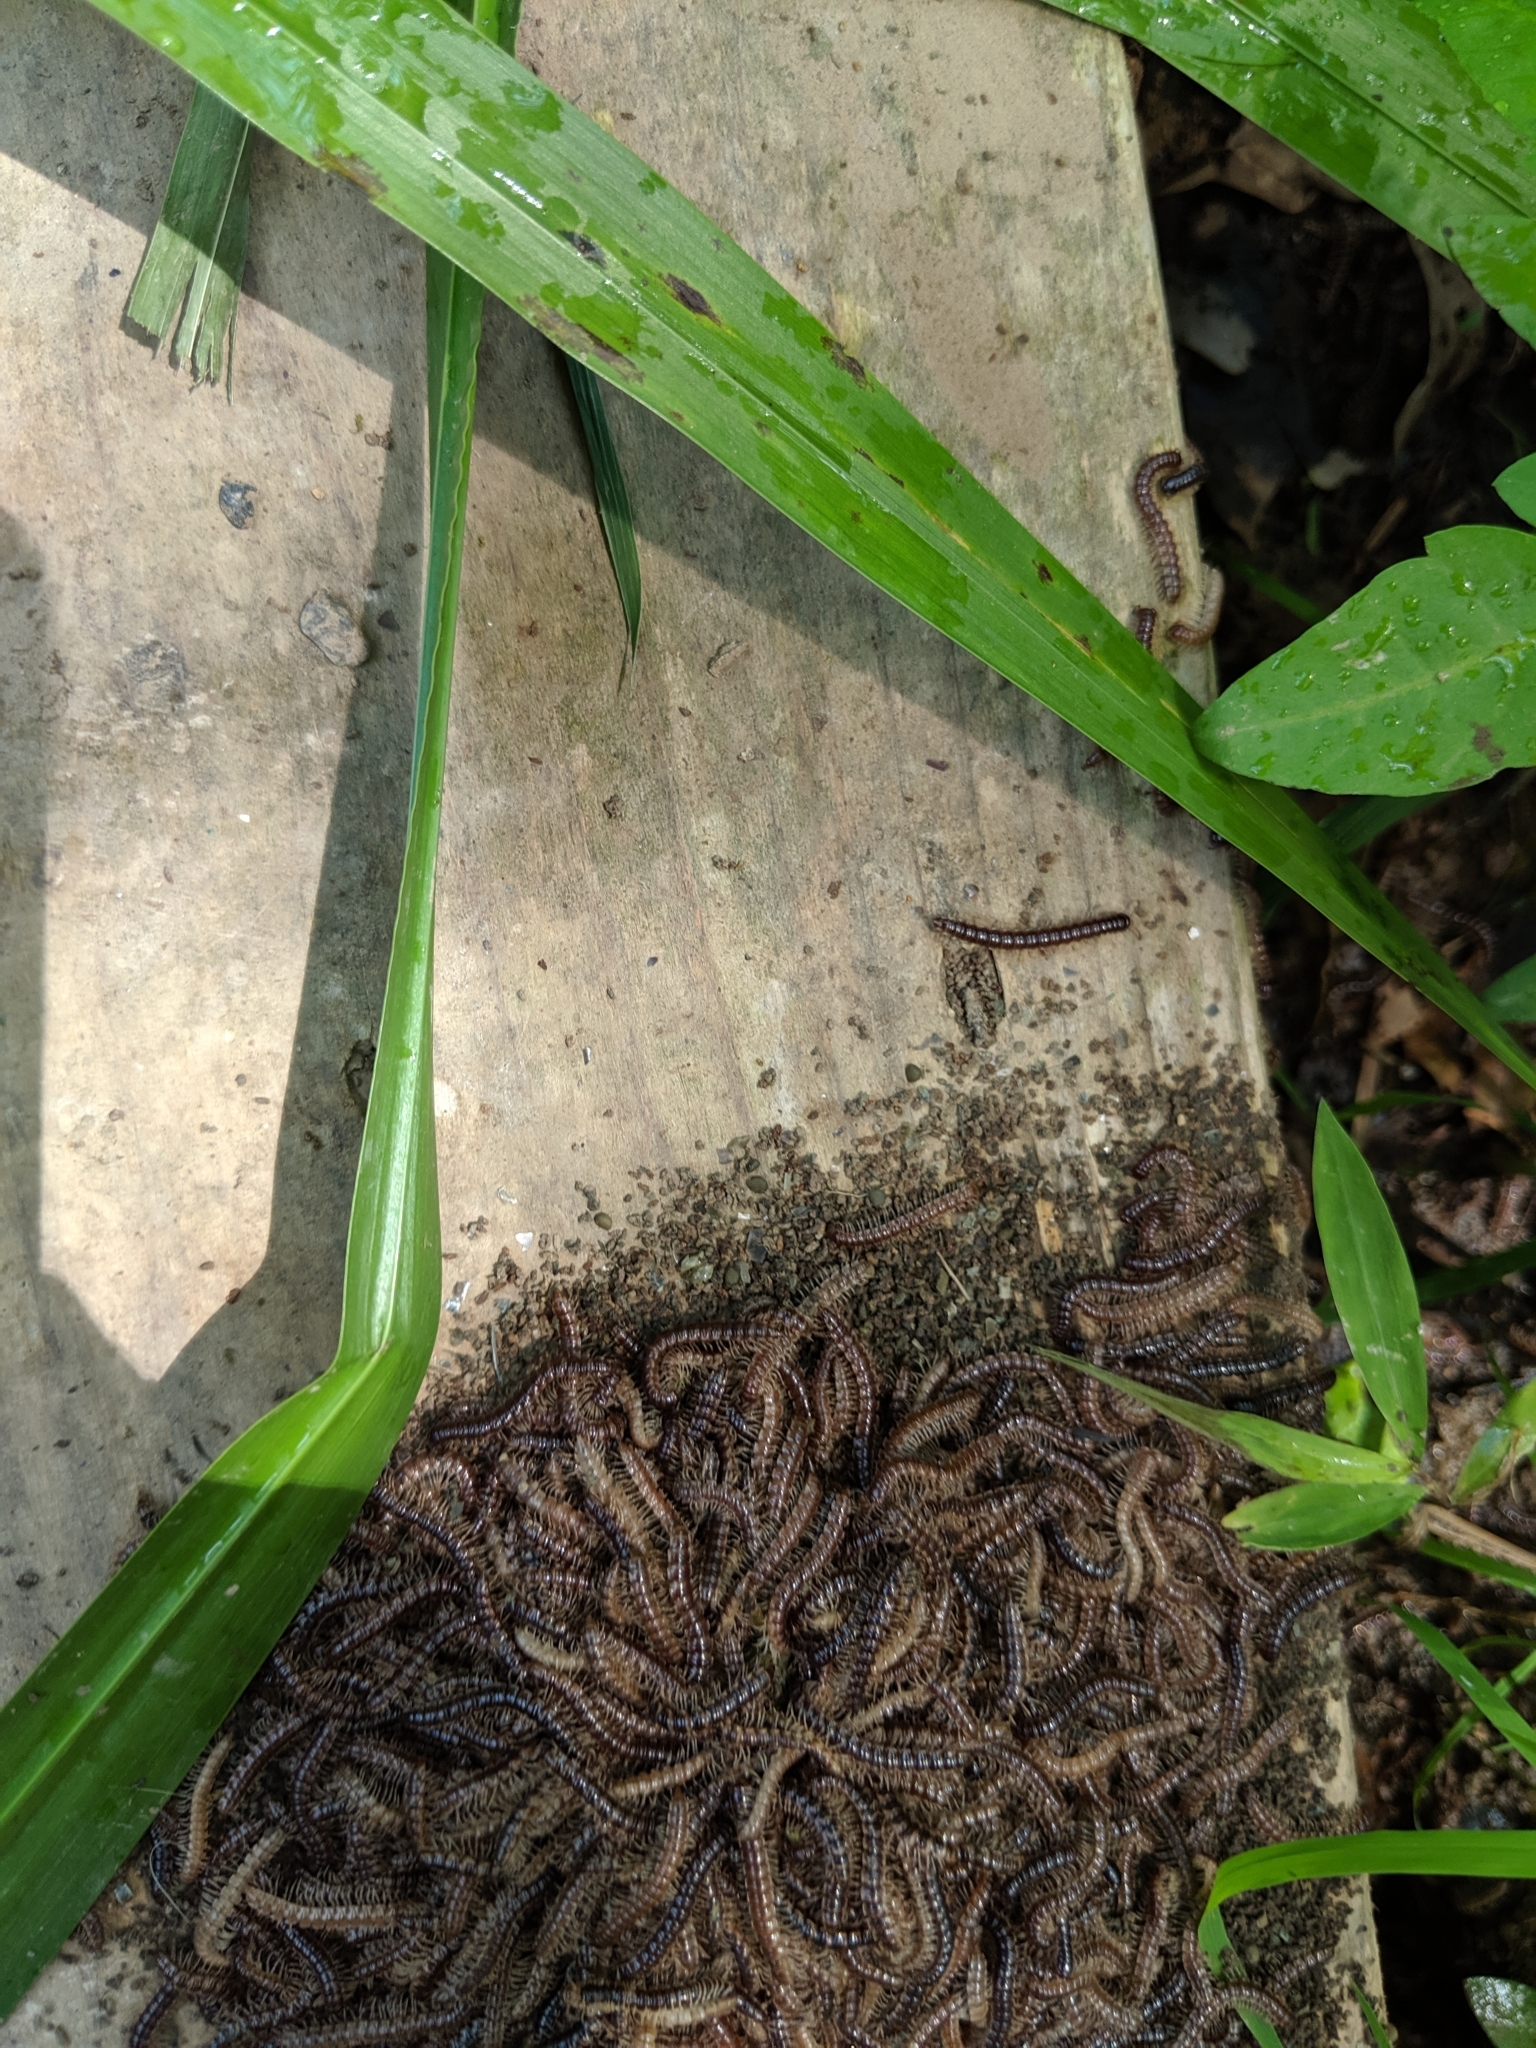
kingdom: Animalia
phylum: Arthropoda
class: Diplopoda
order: Polydesmida
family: Paradoxosomatidae
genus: Oxidus
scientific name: Oxidus gracilis
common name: Greenhouse millipede
